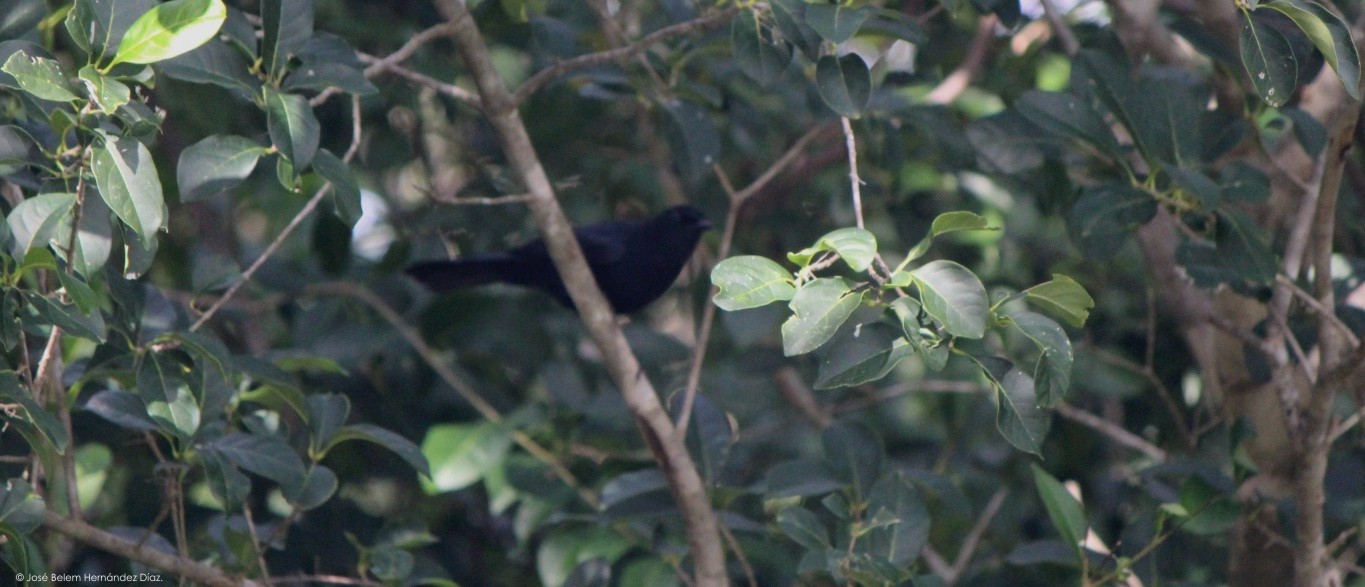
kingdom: Animalia
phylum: Chordata
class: Aves
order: Passeriformes
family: Mimidae
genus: Melanoptila
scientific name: Melanoptila glabrirostris
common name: Black catbird
